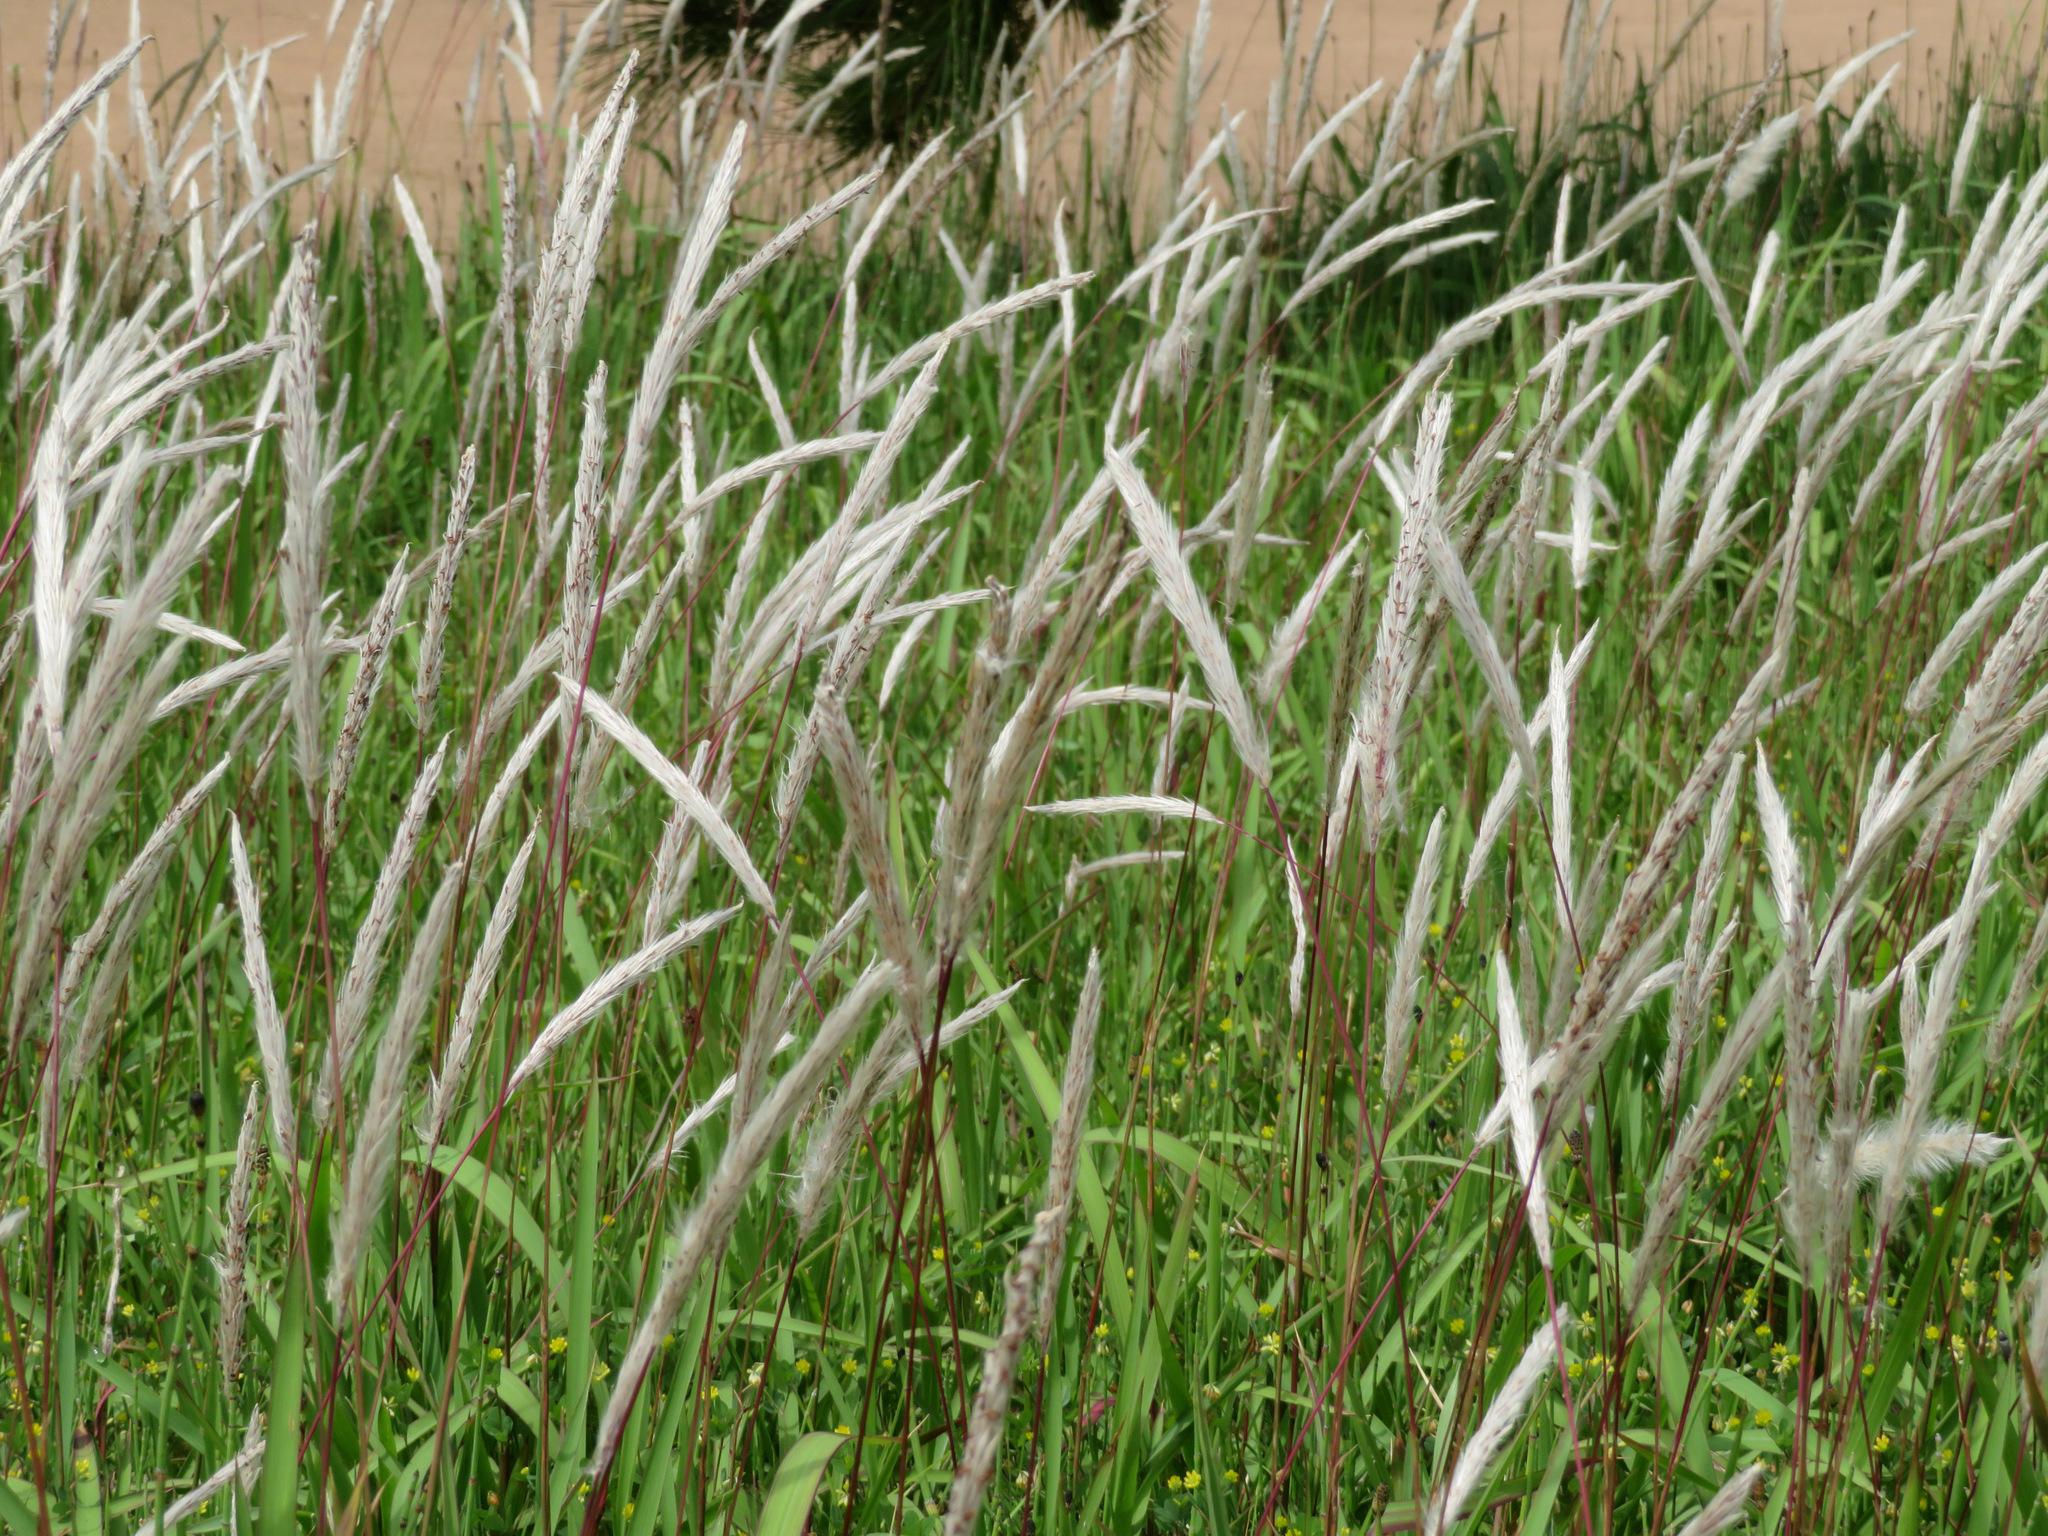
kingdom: Plantae
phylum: Tracheophyta
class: Liliopsida
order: Poales
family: Poaceae
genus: Imperata
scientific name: Imperata cylindrica
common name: Cogongrass
